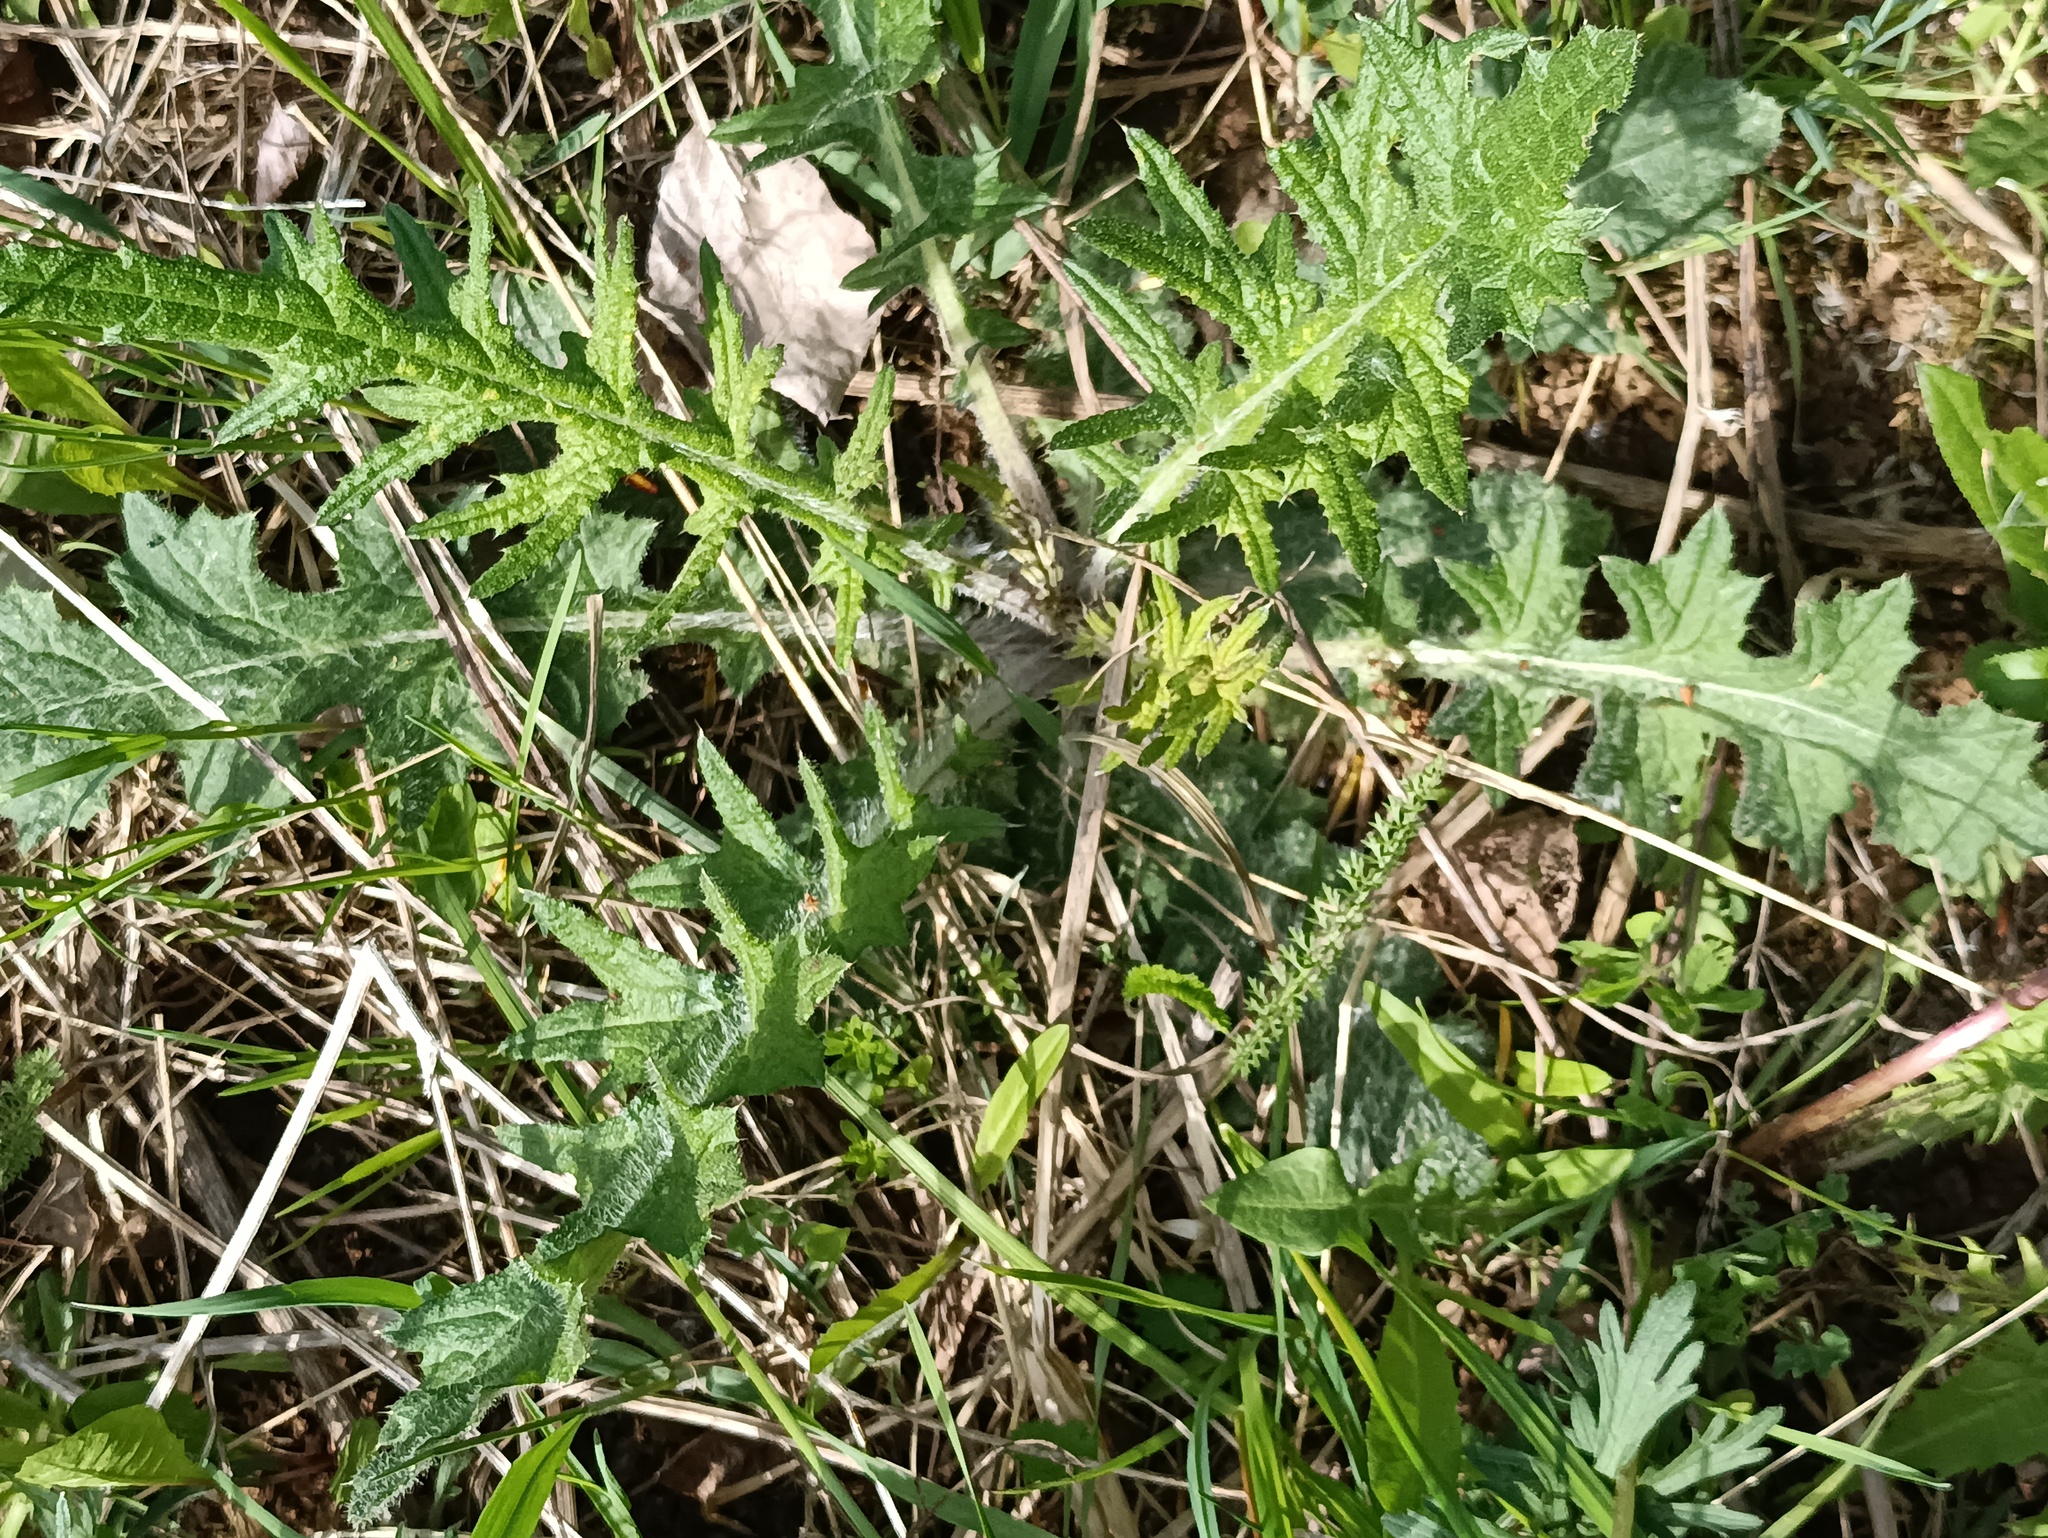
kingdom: Plantae
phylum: Tracheophyta
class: Magnoliopsida
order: Asterales
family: Asteraceae
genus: Cirsium
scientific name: Cirsium vulgare
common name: Bull thistle
